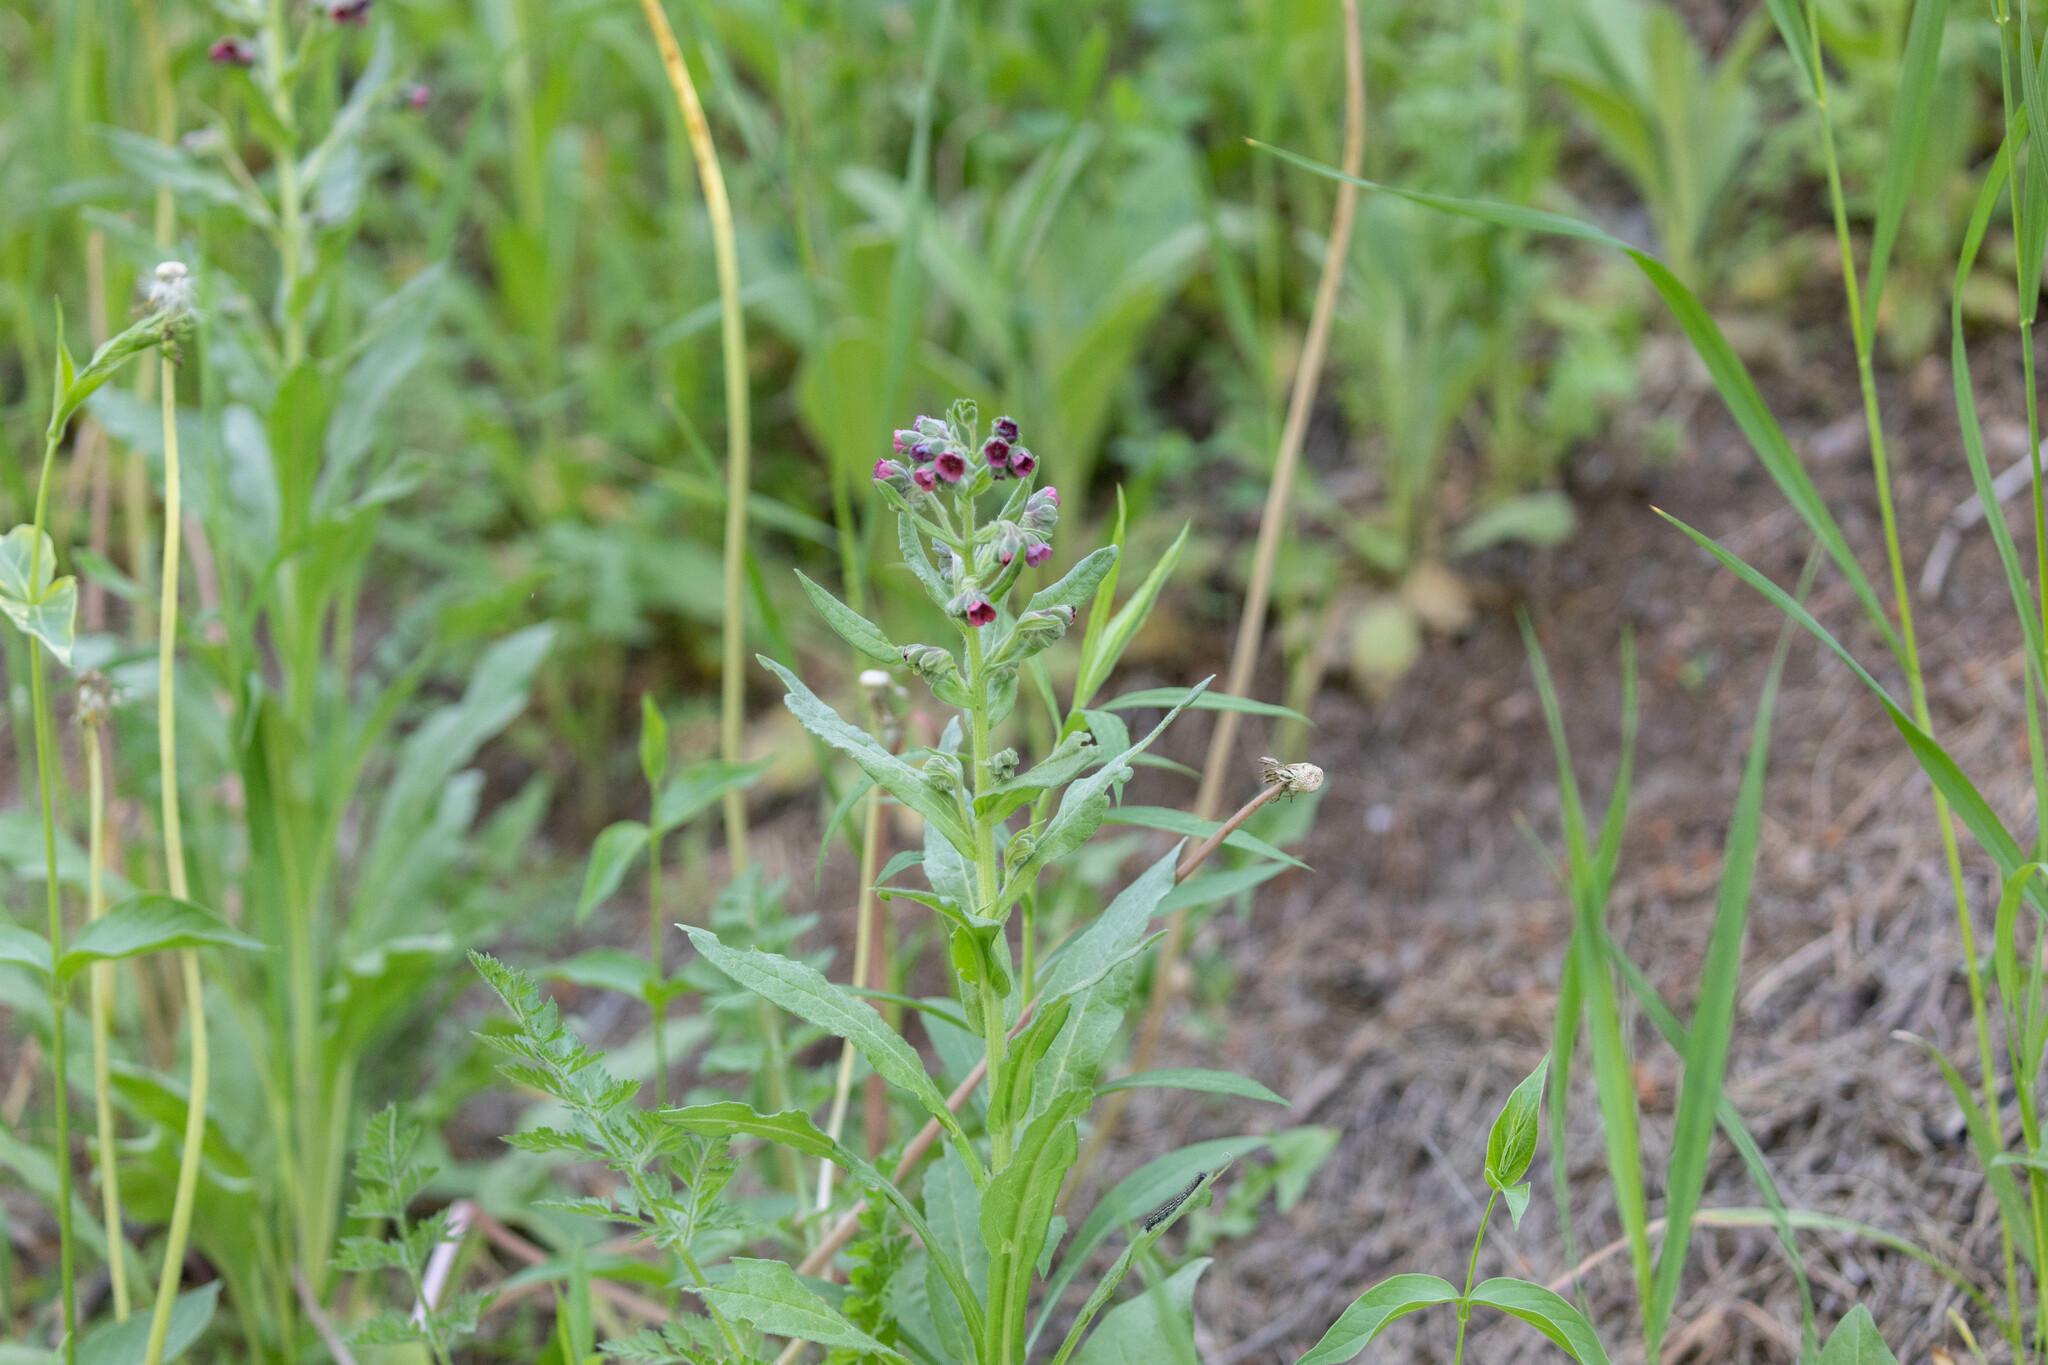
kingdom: Plantae
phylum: Tracheophyta
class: Magnoliopsida
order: Boraginales
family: Boraginaceae
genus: Cynoglossum
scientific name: Cynoglossum officinale
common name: Hound's-tongue
